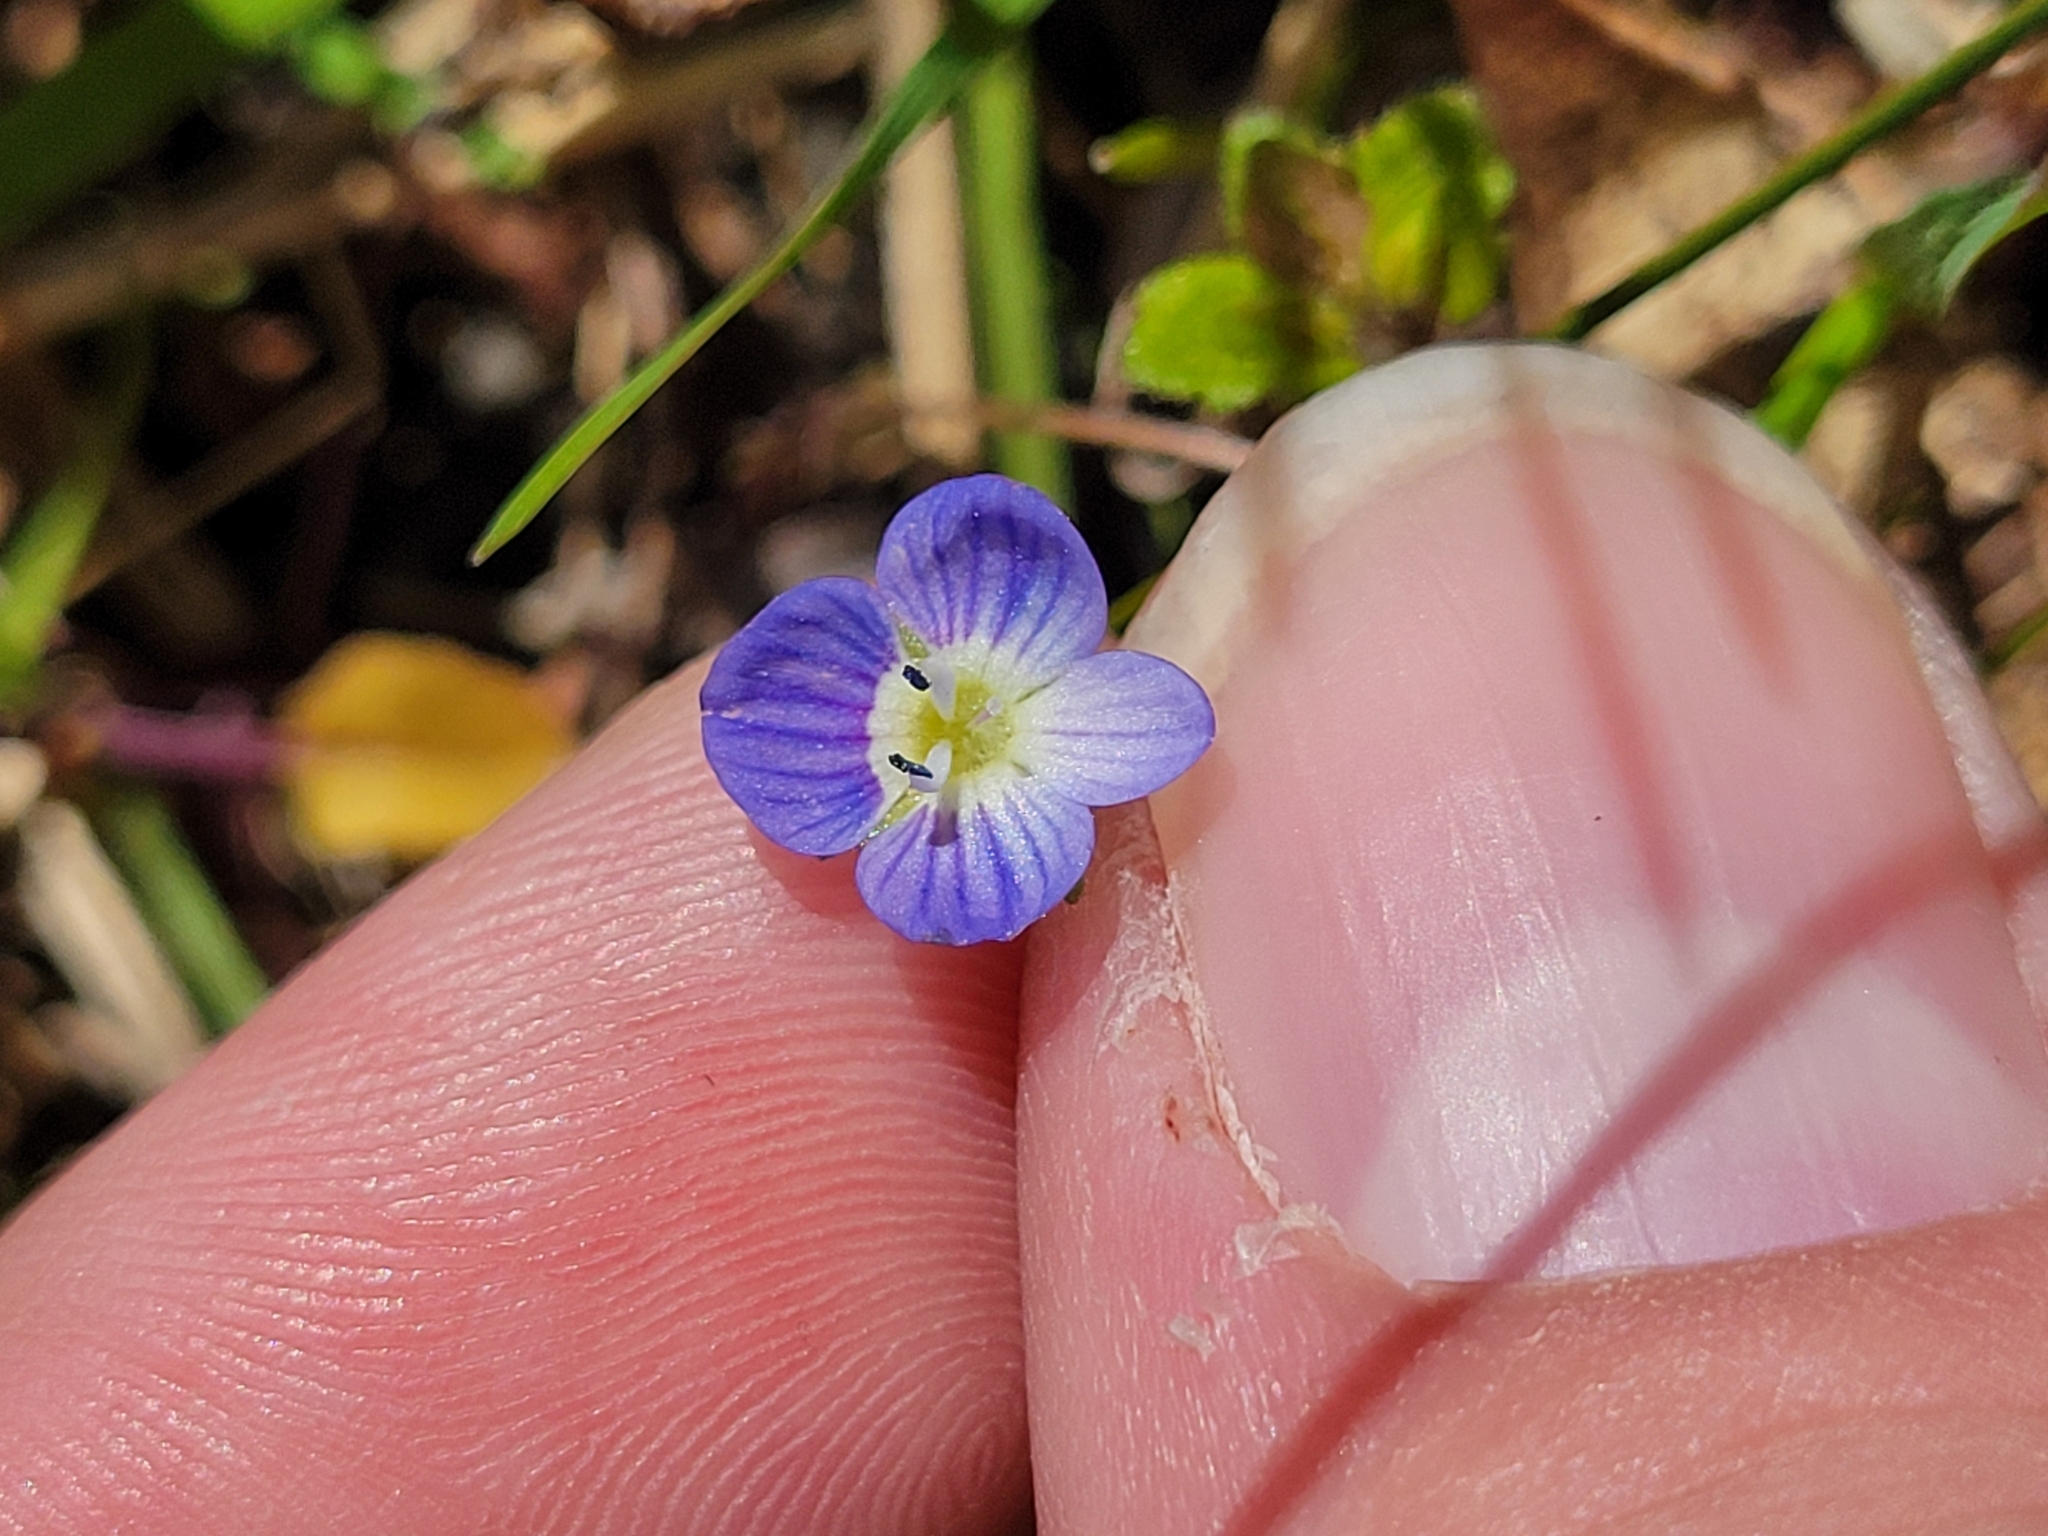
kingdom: Plantae
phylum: Tracheophyta
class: Magnoliopsida
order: Lamiales
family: Plantaginaceae
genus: Veronica
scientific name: Veronica persica
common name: Common field-speedwell
